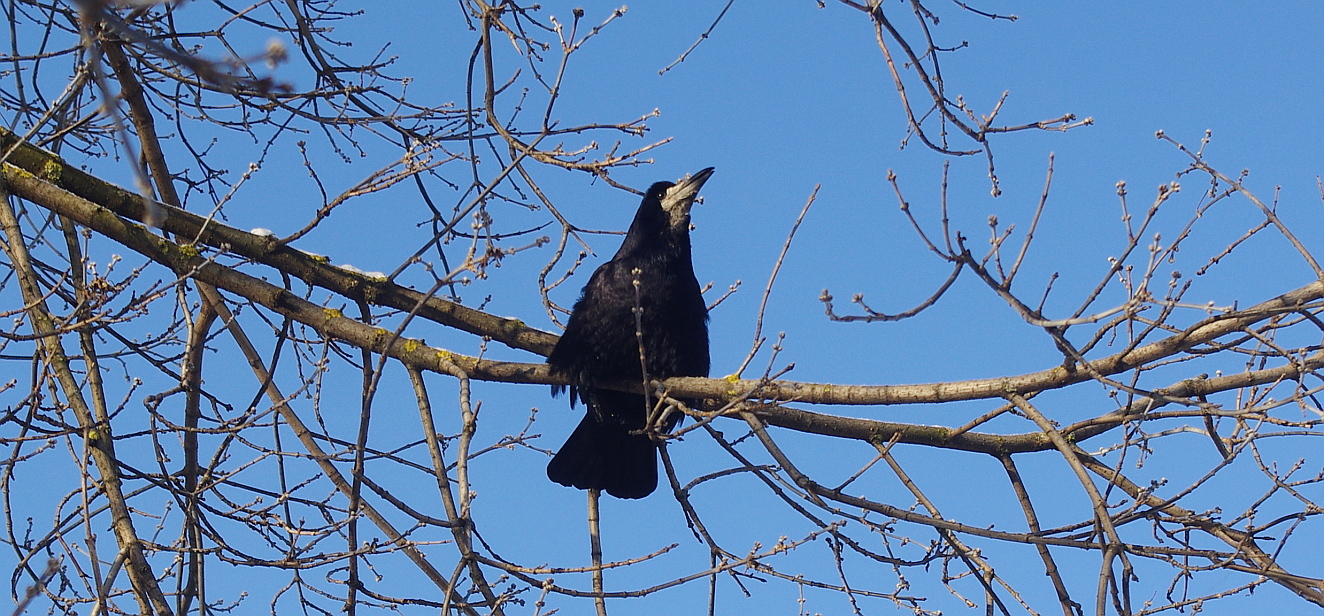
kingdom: Animalia
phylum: Chordata
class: Aves
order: Passeriformes
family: Corvidae
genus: Corvus
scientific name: Corvus frugilegus
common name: Rook
